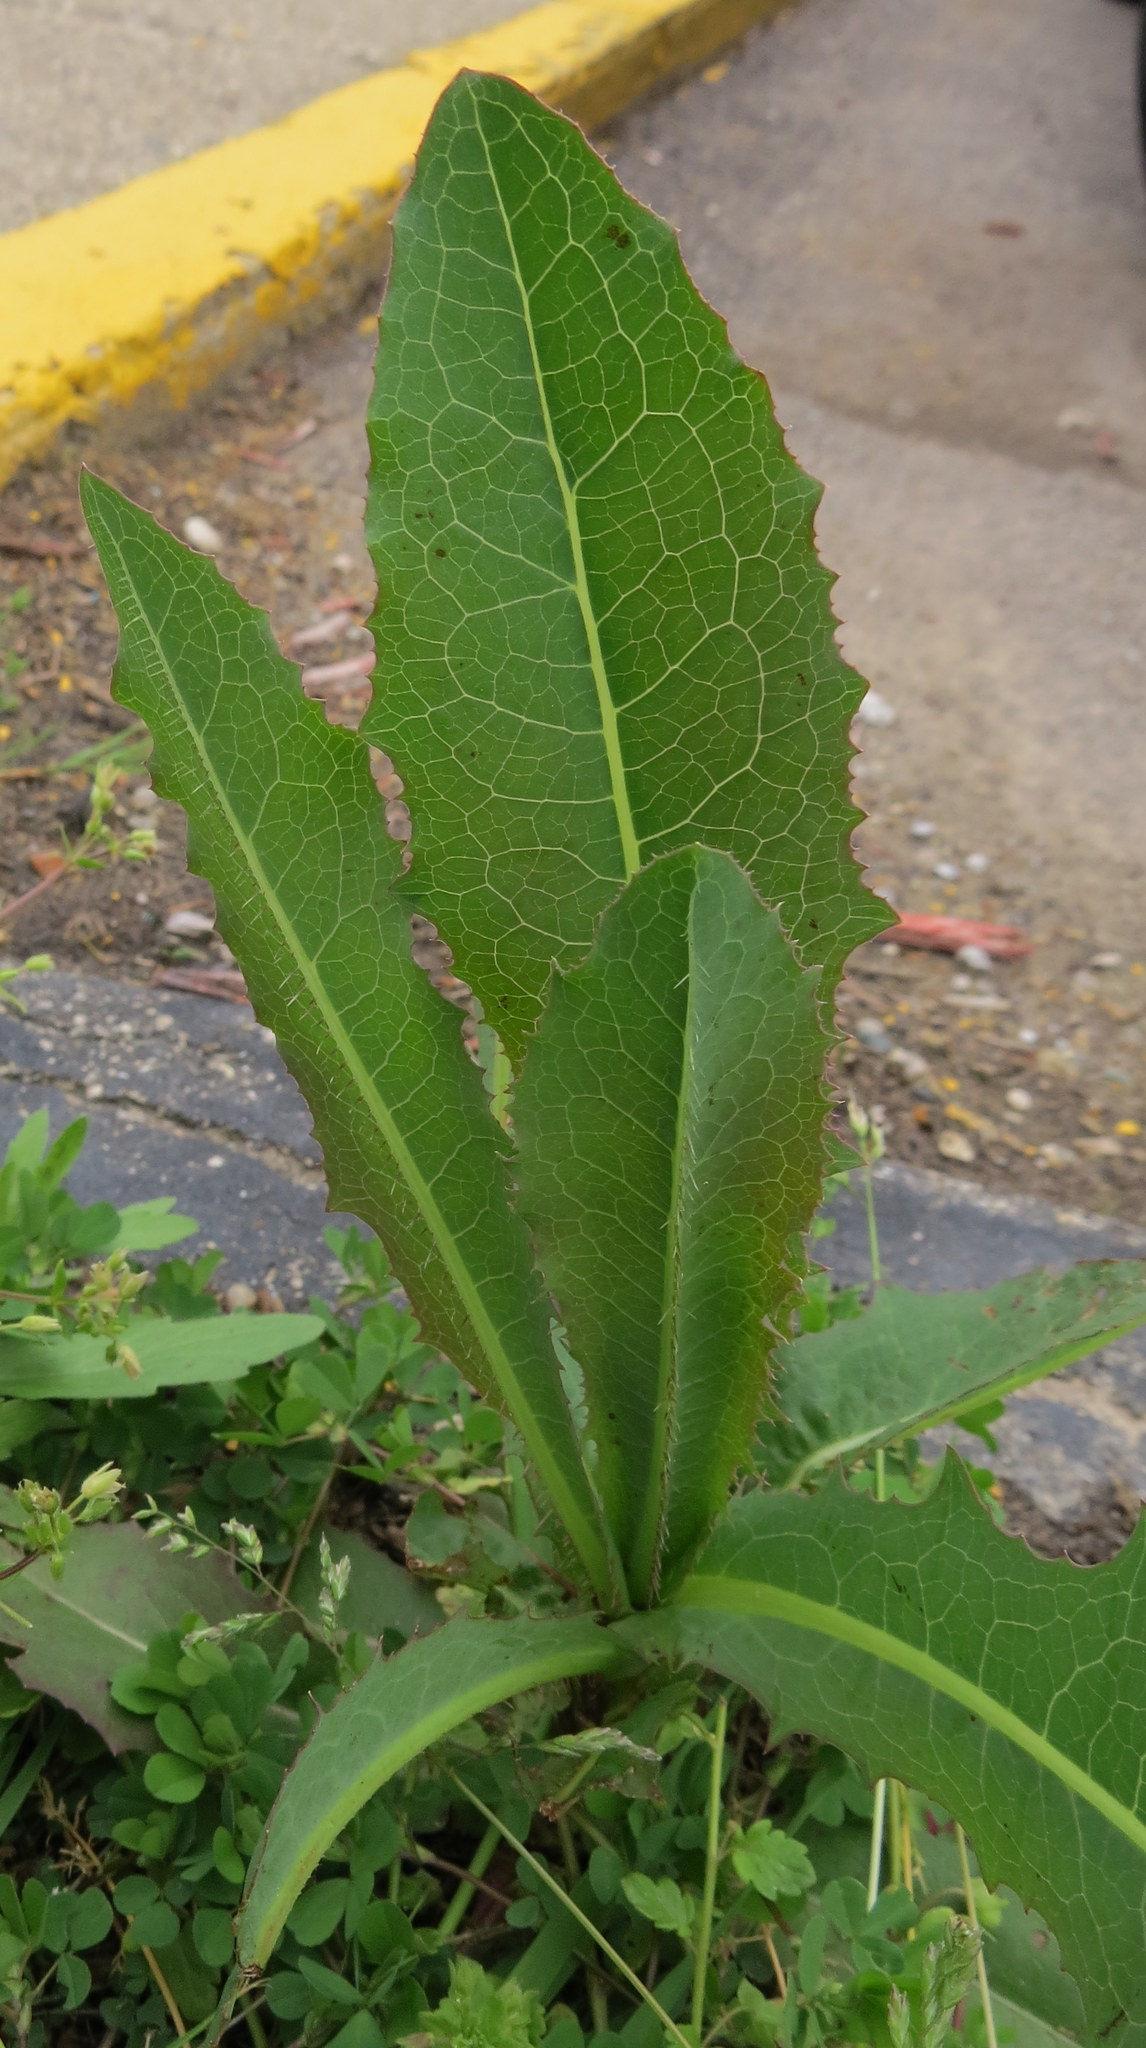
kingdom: Plantae
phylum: Tracheophyta
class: Magnoliopsida
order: Asterales
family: Asteraceae
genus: Lactuca
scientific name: Lactuca serriola
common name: Prickly lettuce
